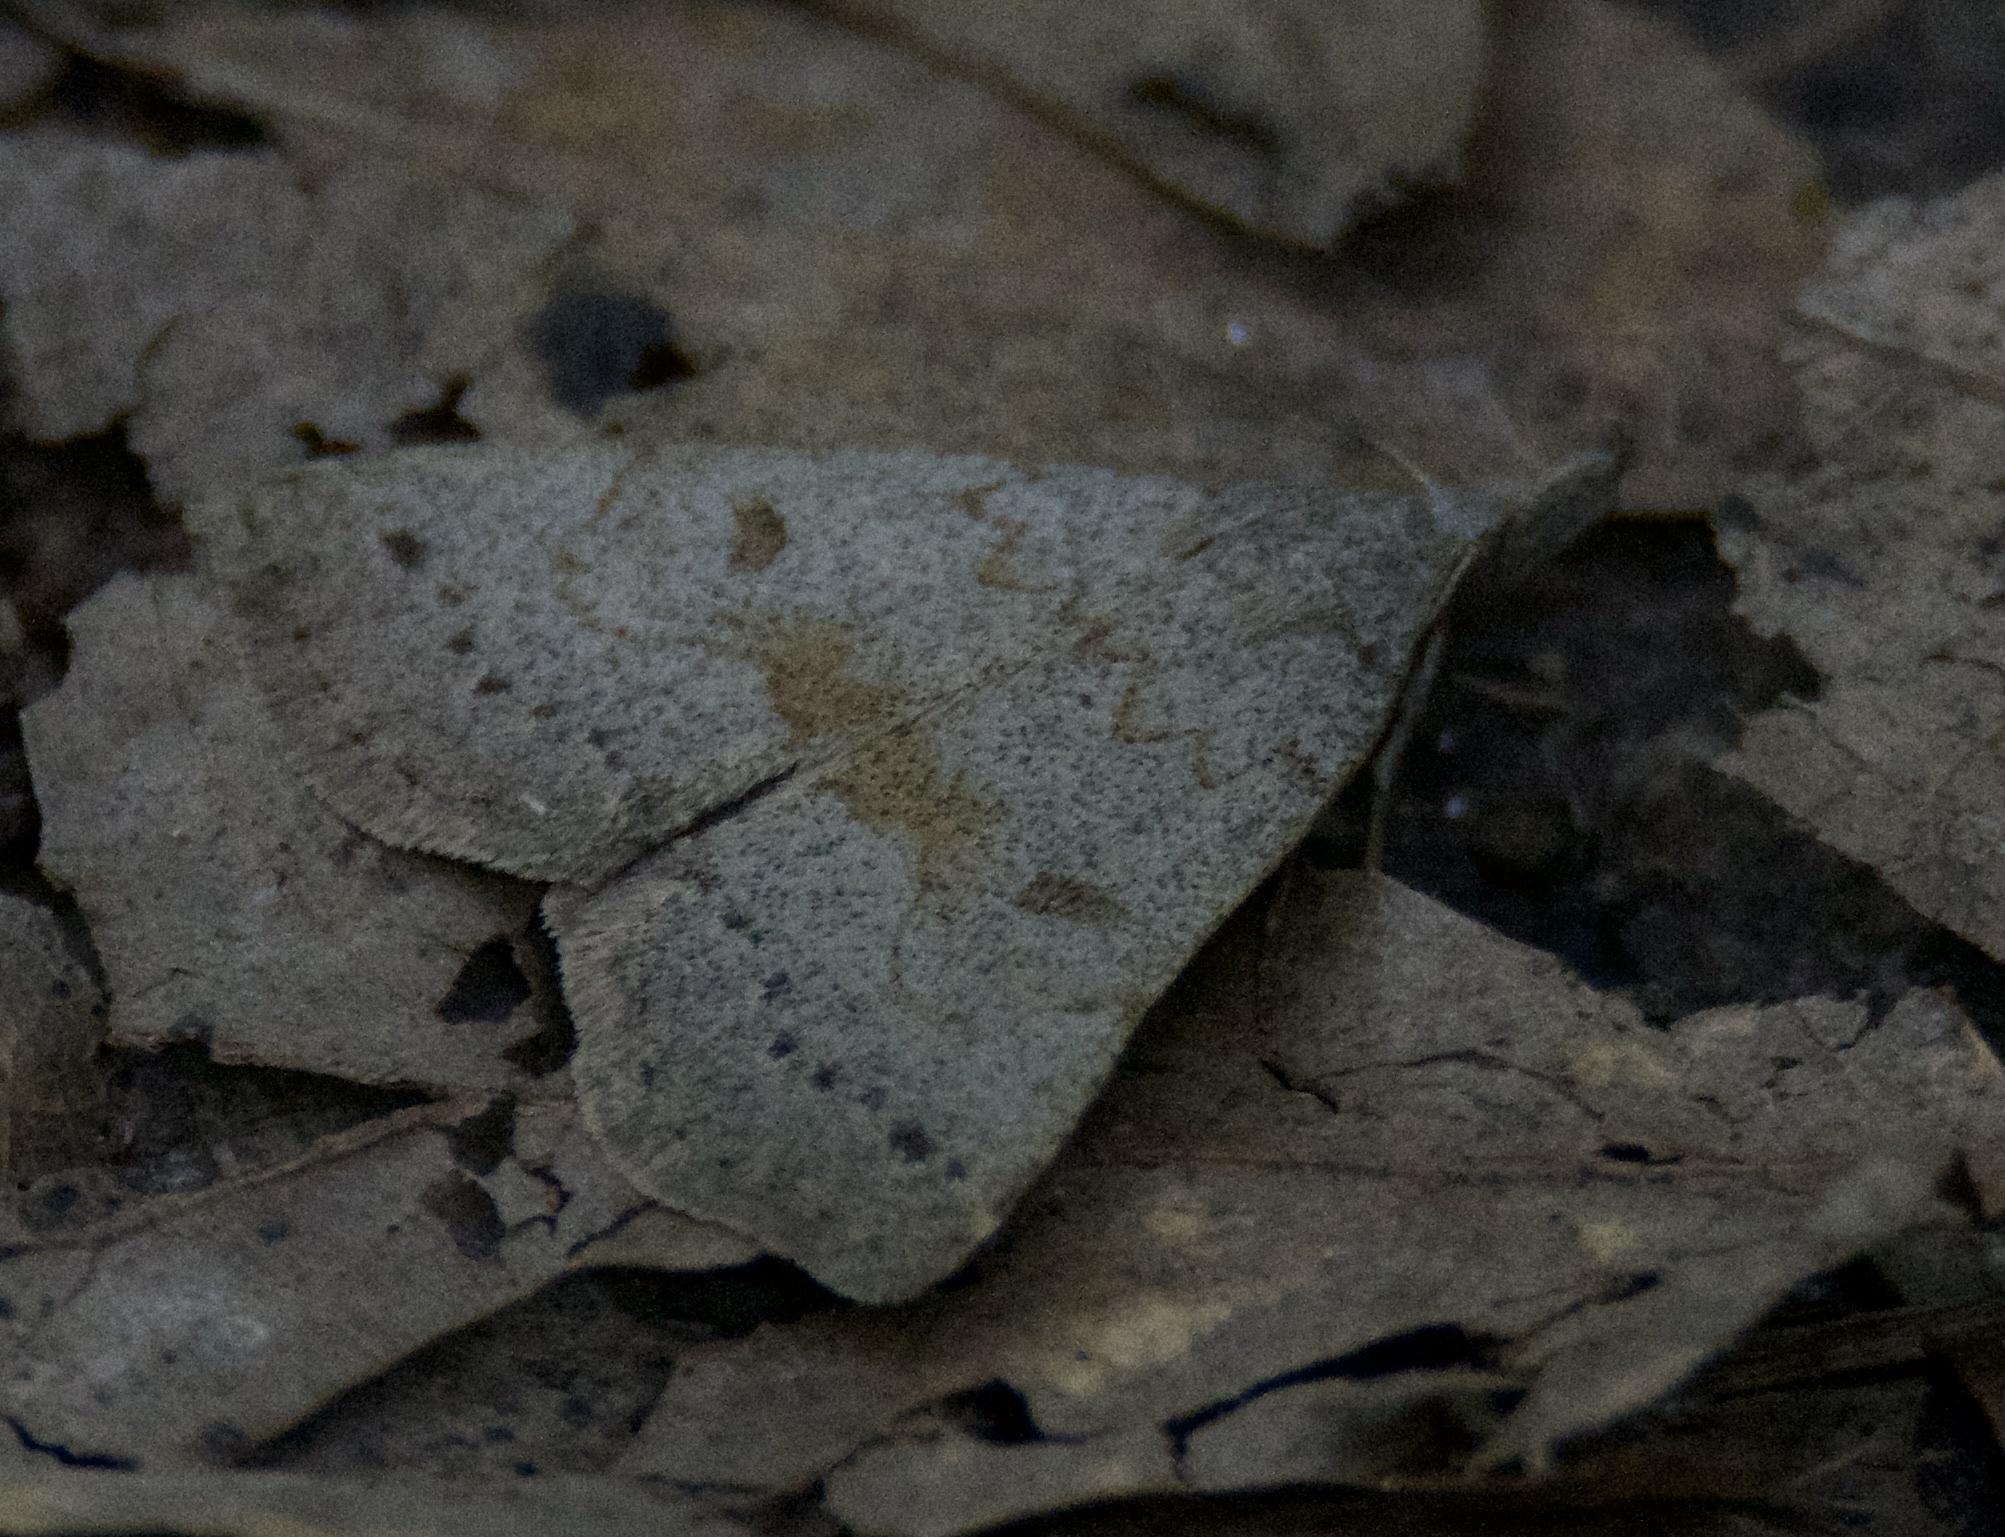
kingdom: Animalia
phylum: Arthropoda
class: Insecta
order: Lepidoptera
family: Erebidae
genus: Macrochilo
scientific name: Macrochilo morbidalis
